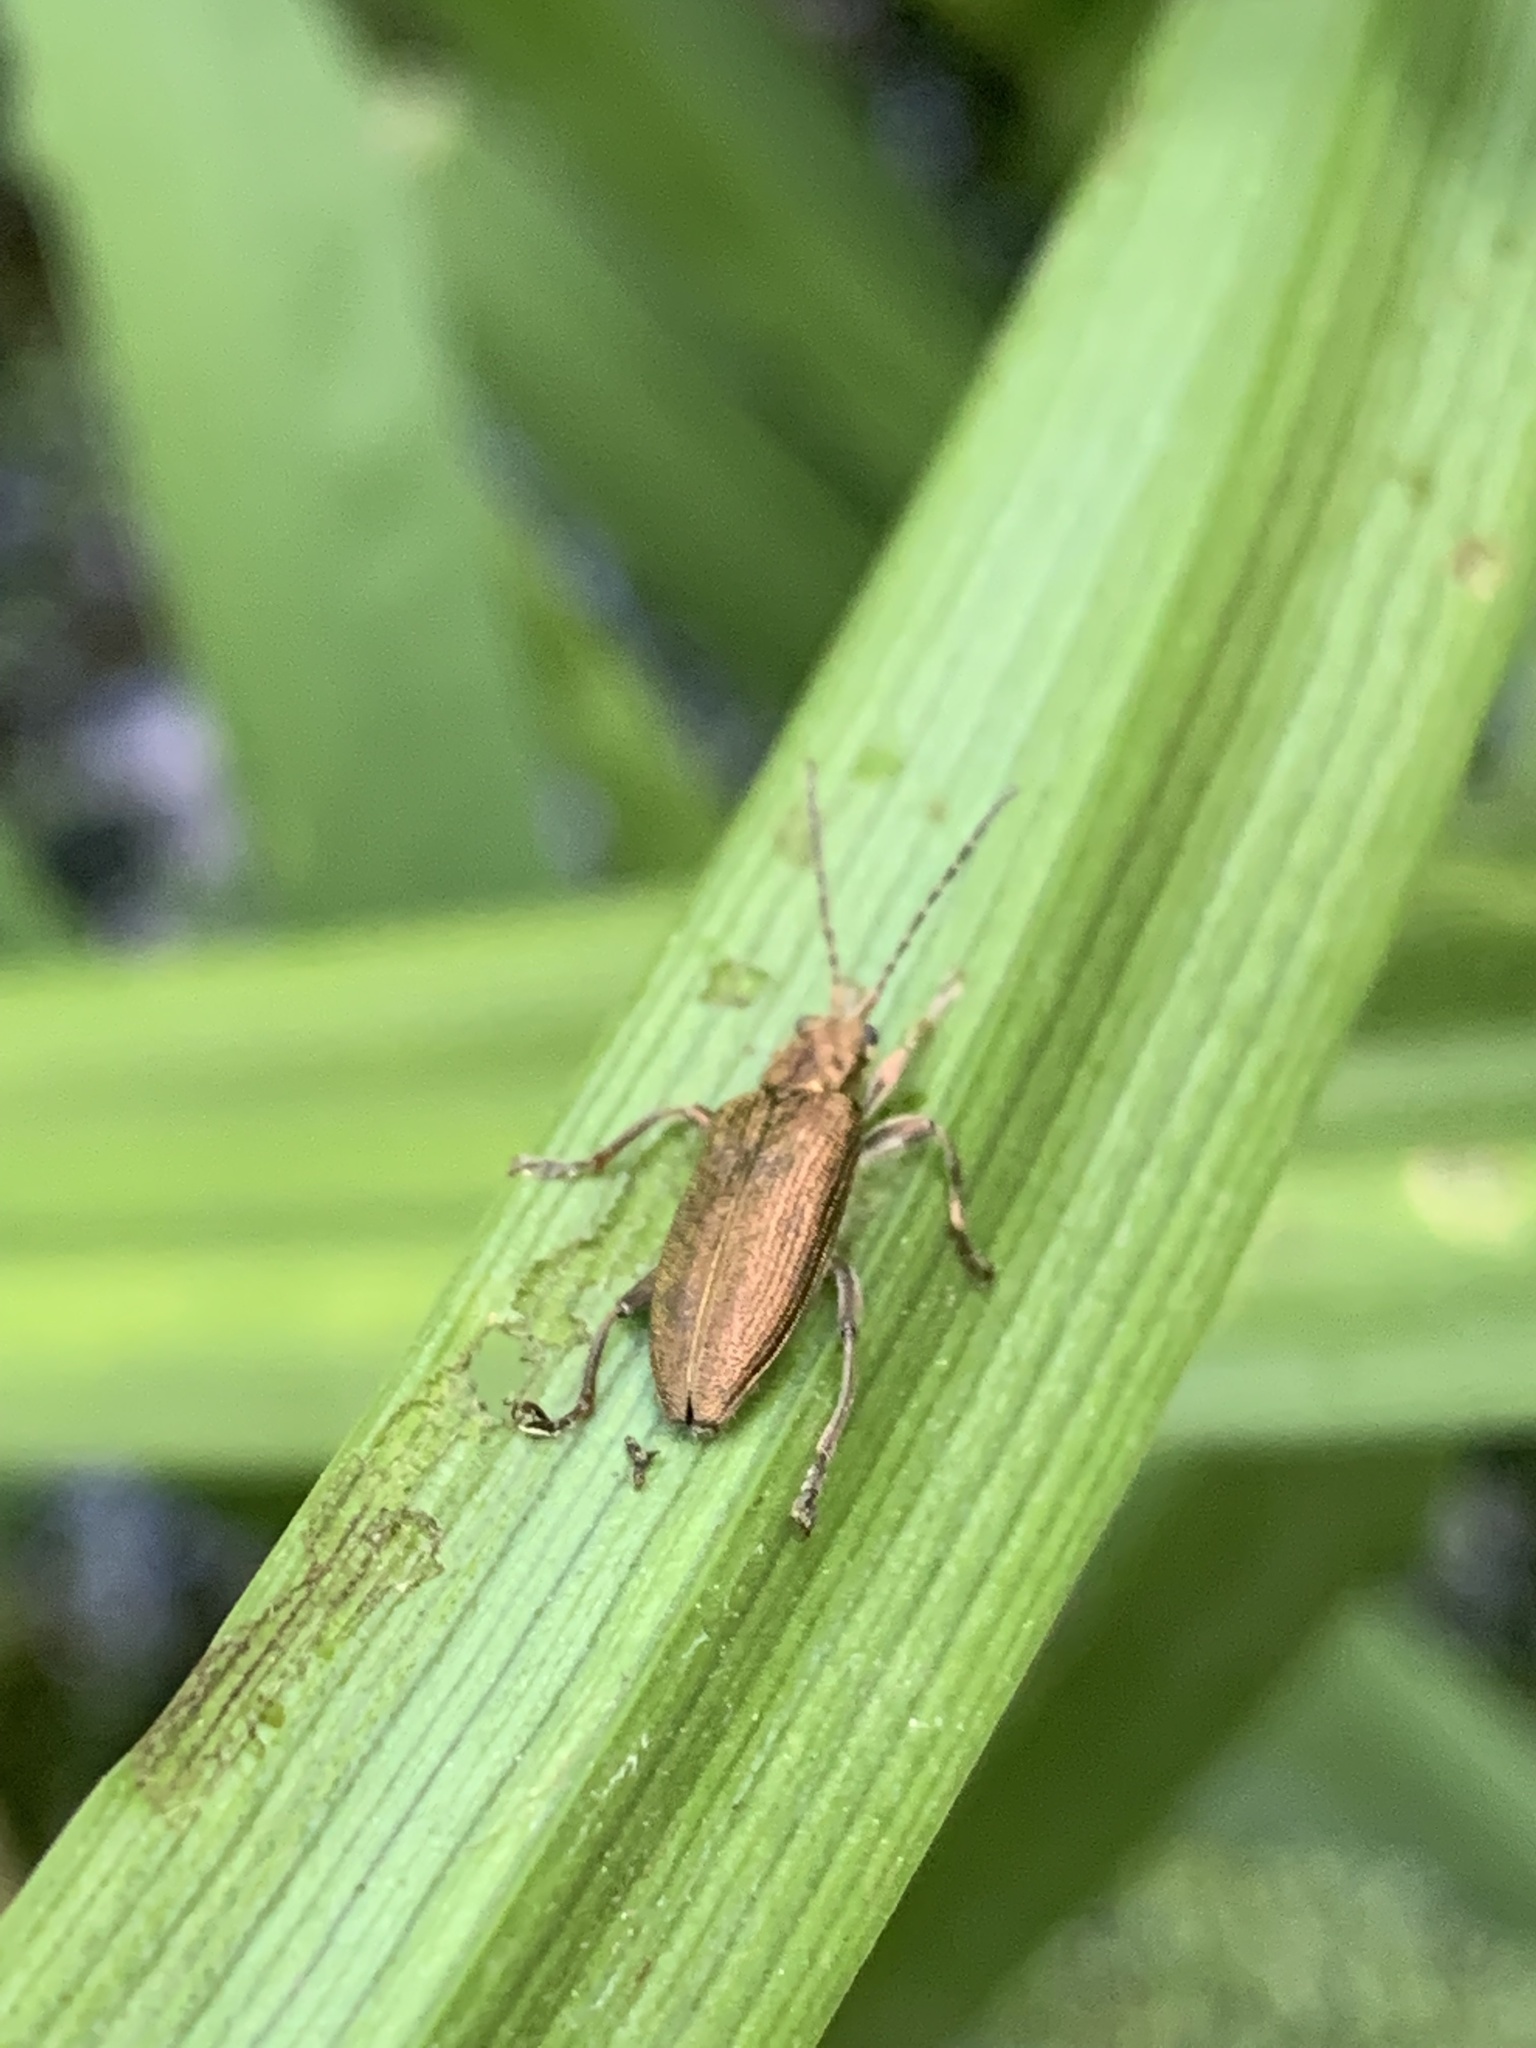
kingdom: Animalia
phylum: Arthropoda
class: Insecta
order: Coleoptera
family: Chrysomelidae
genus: Donacia
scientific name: Donacia simplex
